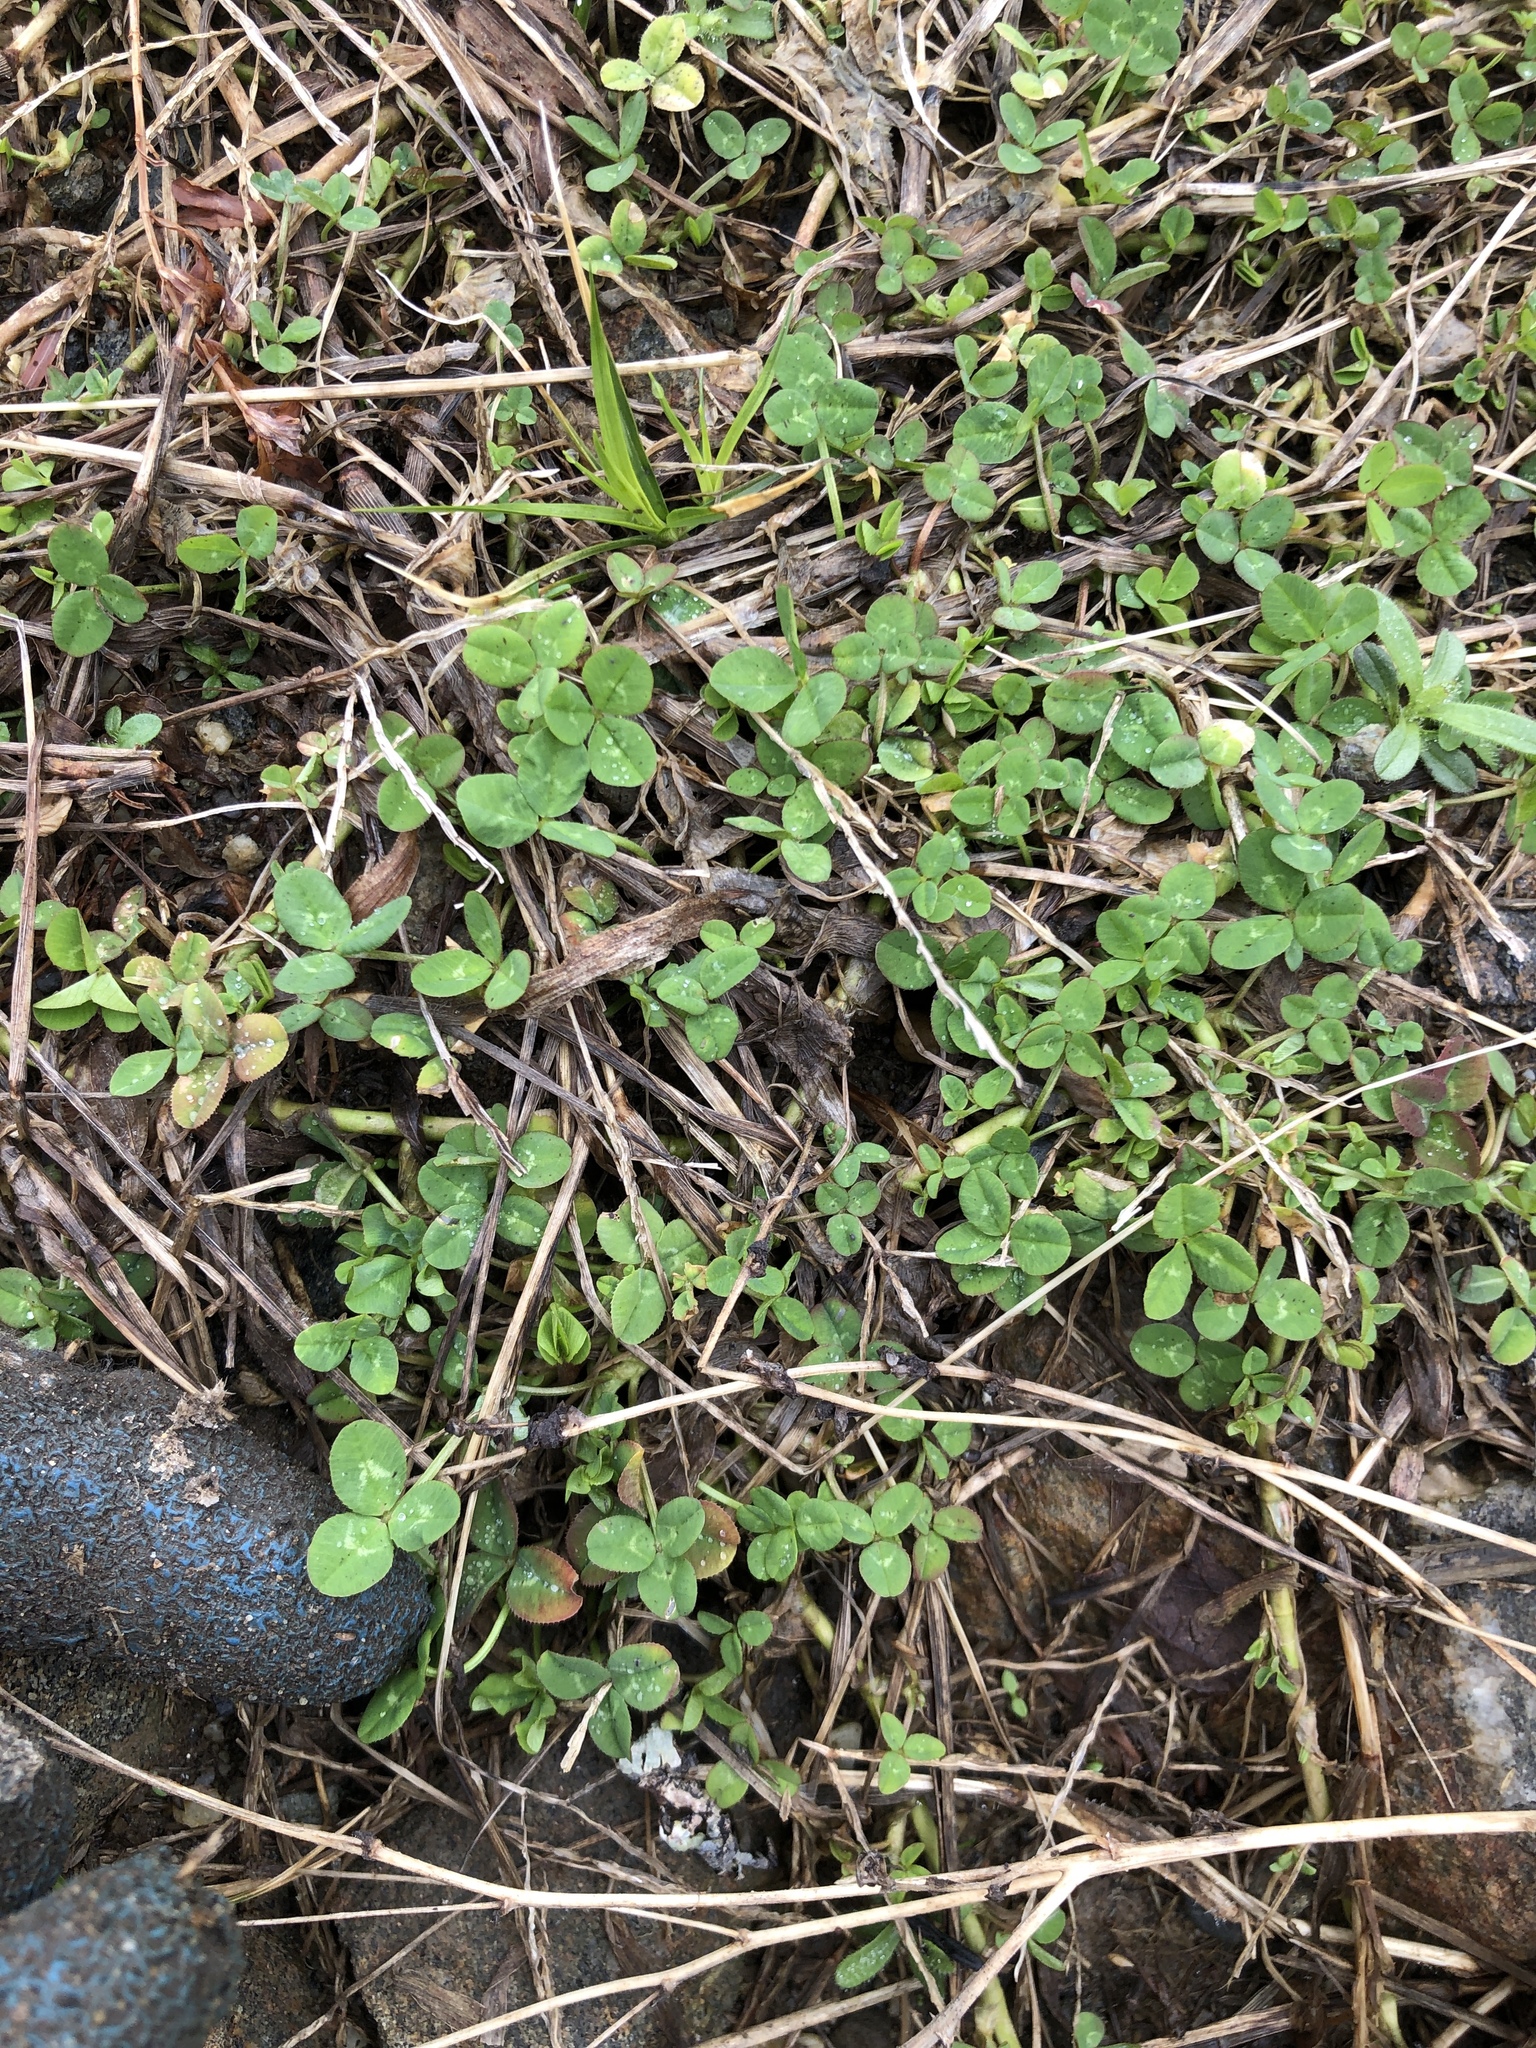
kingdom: Plantae
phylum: Tracheophyta
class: Magnoliopsida
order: Fabales
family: Fabaceae
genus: Trifolium
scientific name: Trifolium repens
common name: White clover
